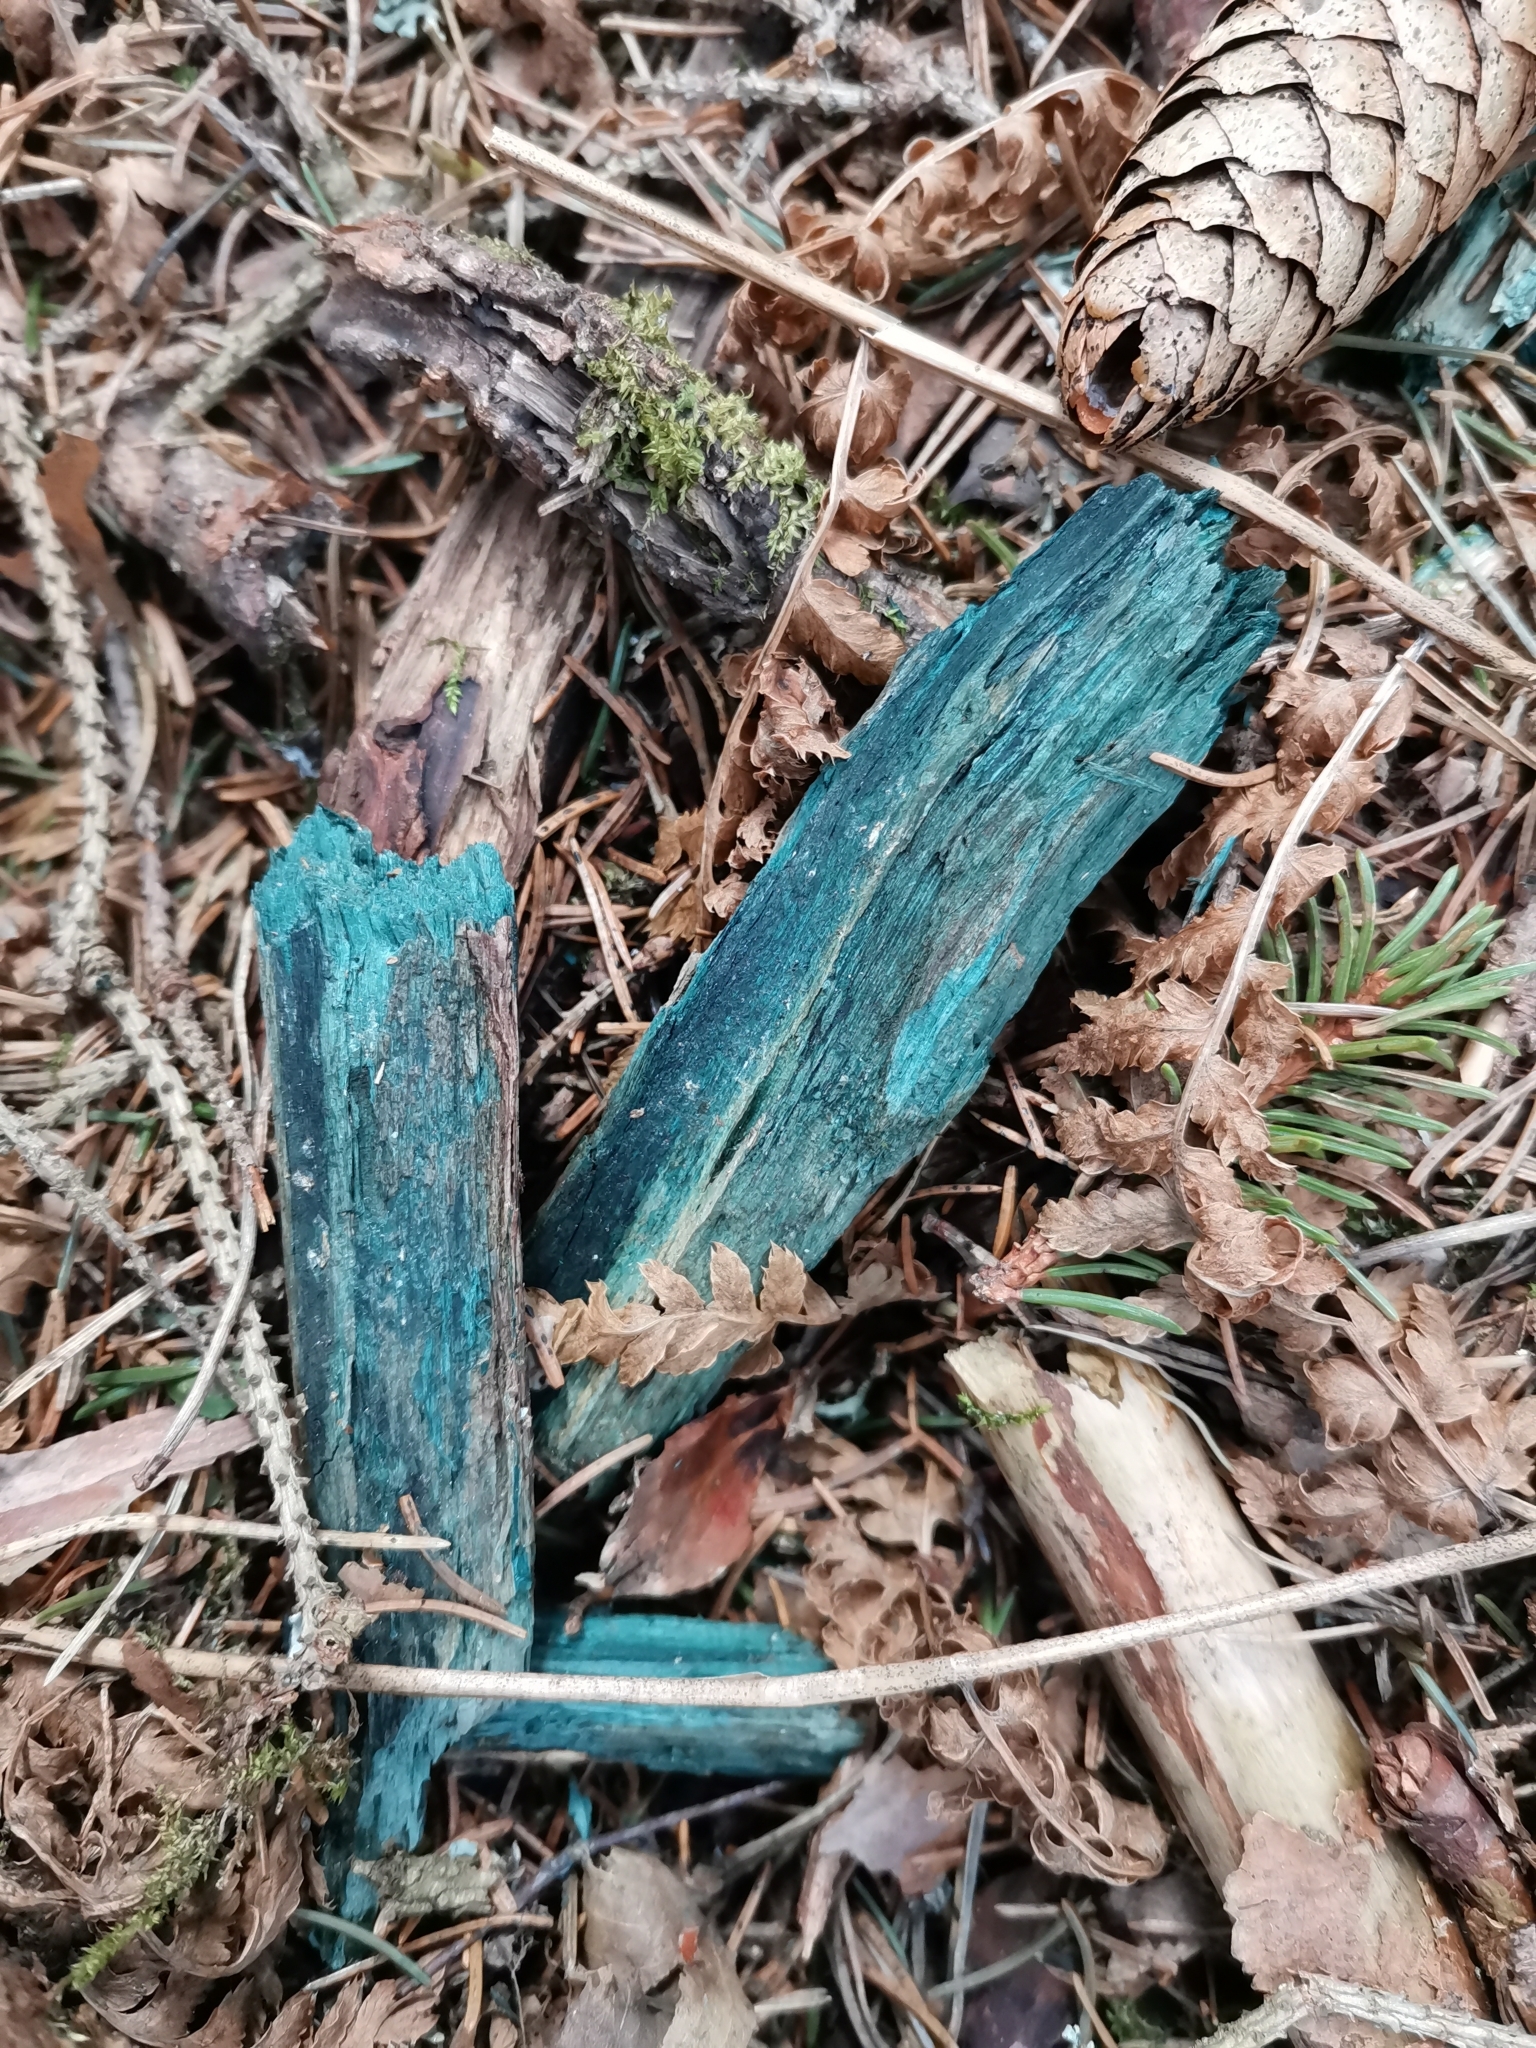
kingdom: Fungi
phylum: Ascomycota
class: Leotiomycetes
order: Helotiales
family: Chlorociboriaceae
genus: Chlorociboria
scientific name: Chlorociboria
